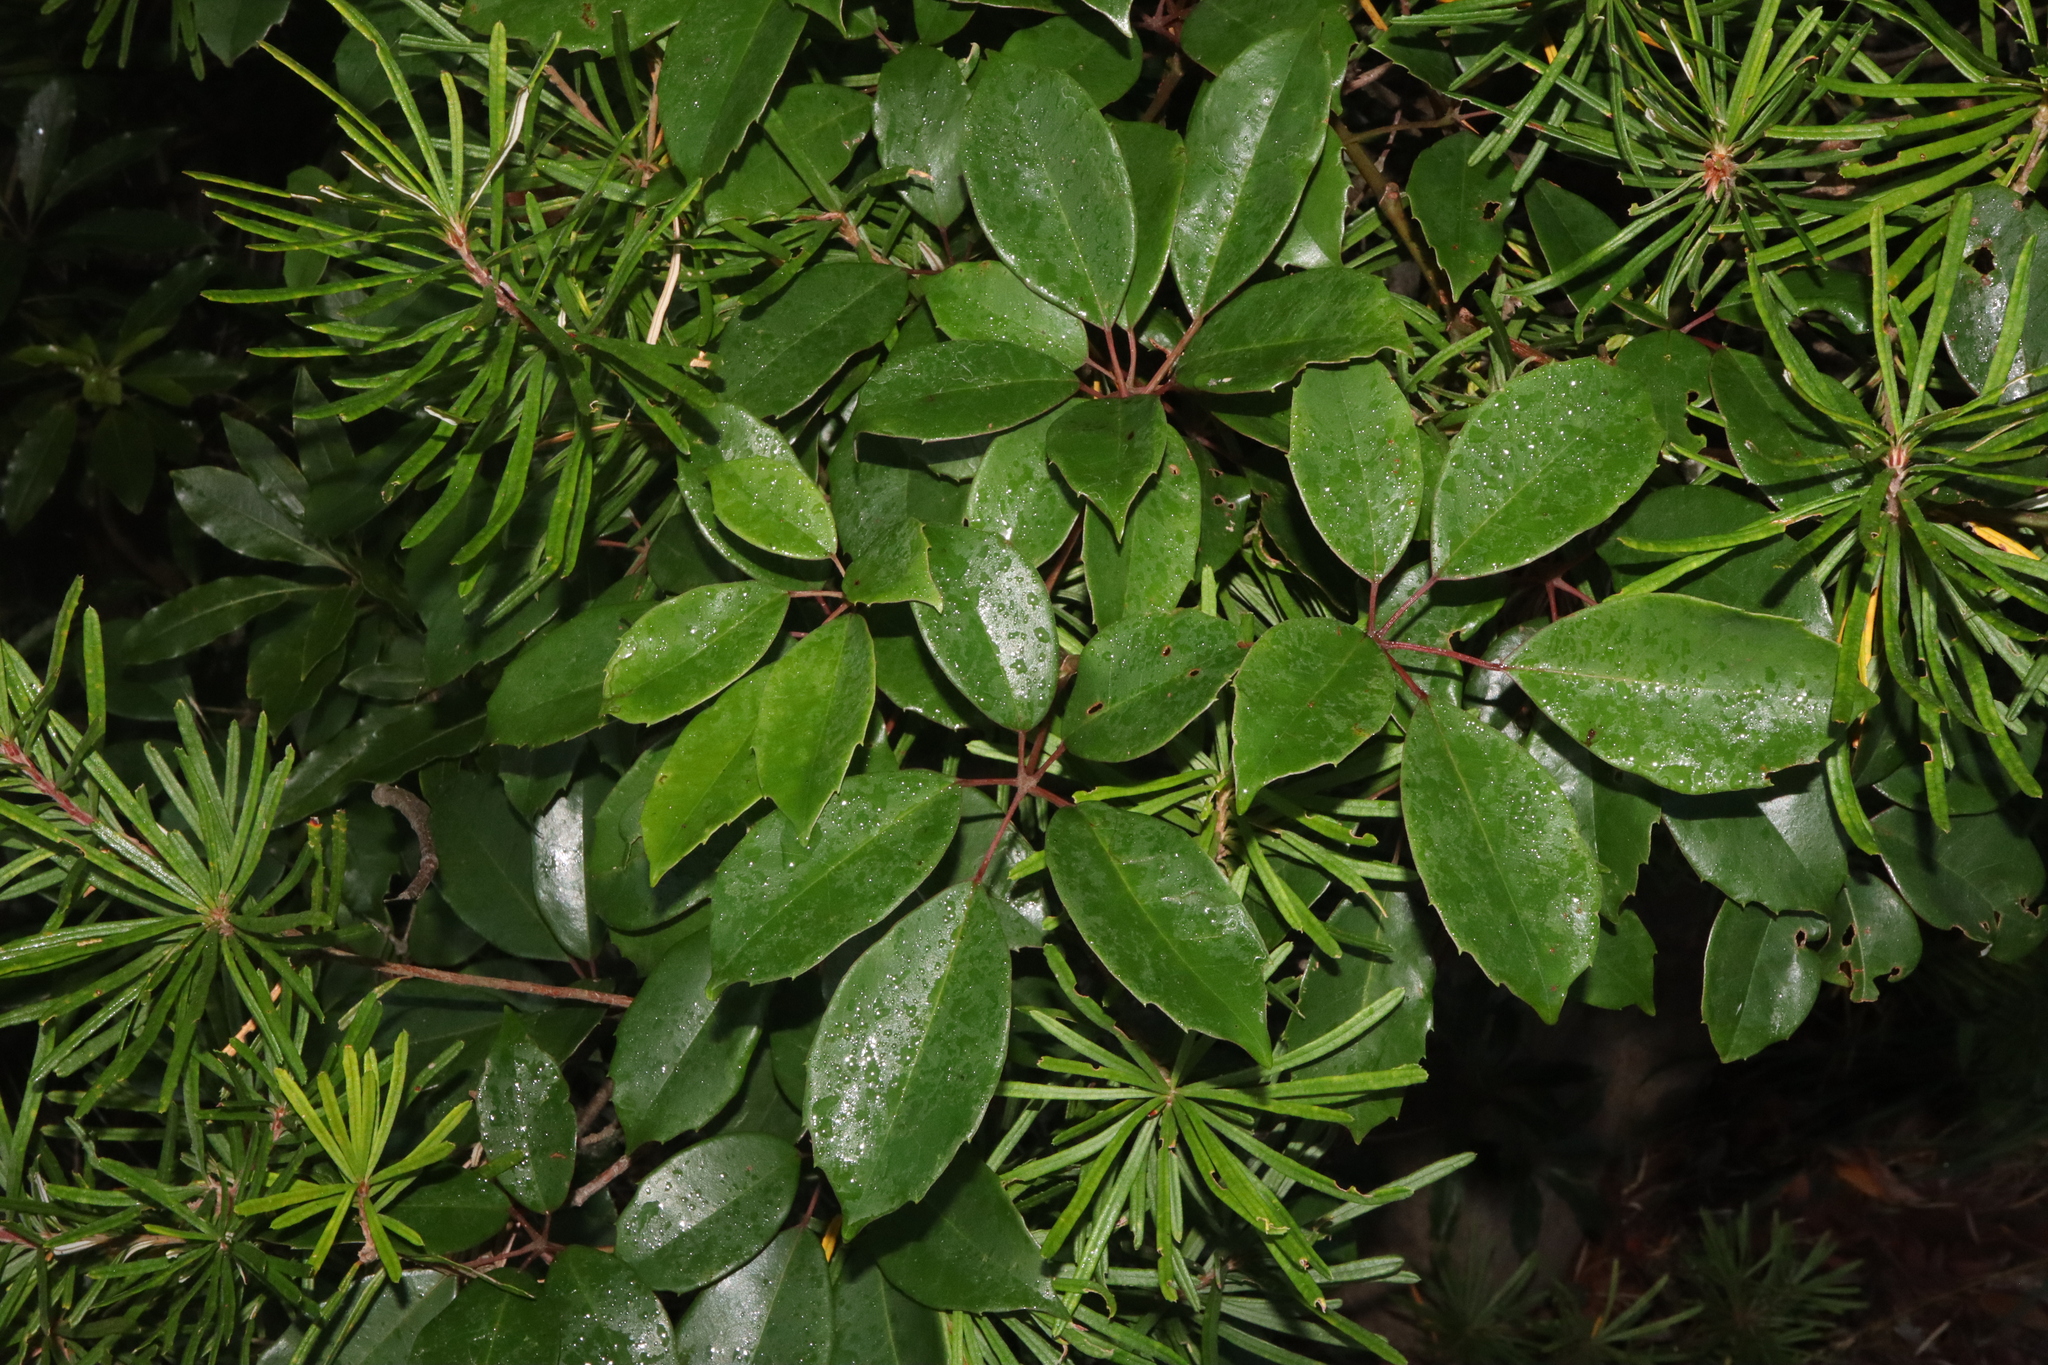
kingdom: Plantae
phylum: Tracheophyta
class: Magnoliopsida
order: Vitales
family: Vitaceae
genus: Nothocissus
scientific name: Nothocissus hypoglauca
